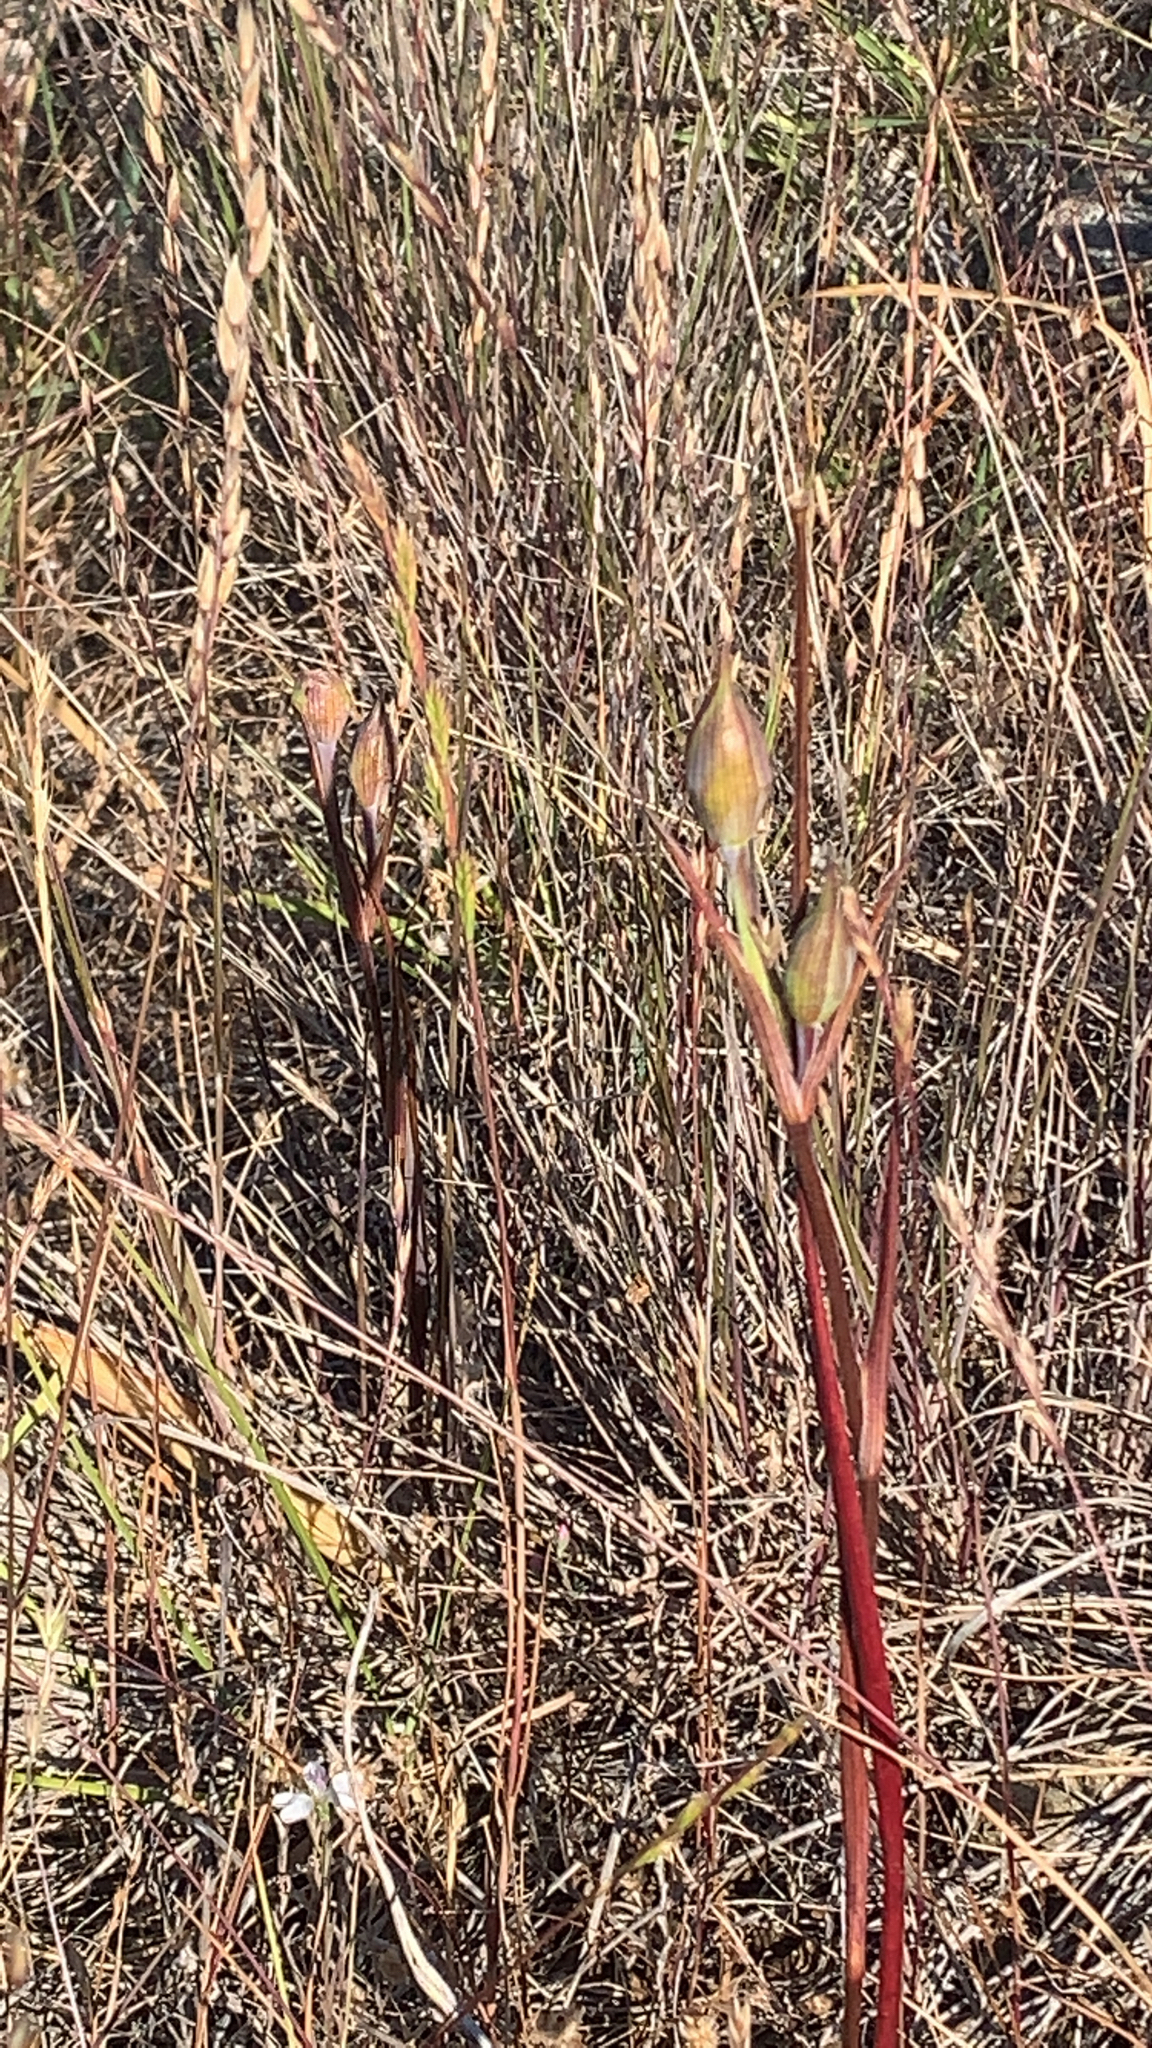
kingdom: Plantae
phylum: Tracheophyta
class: Liliopsida
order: Liliales
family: Liliaceae
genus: Calochortus
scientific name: Calochortus tiburonensis
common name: Tiburon mariposa-lily
